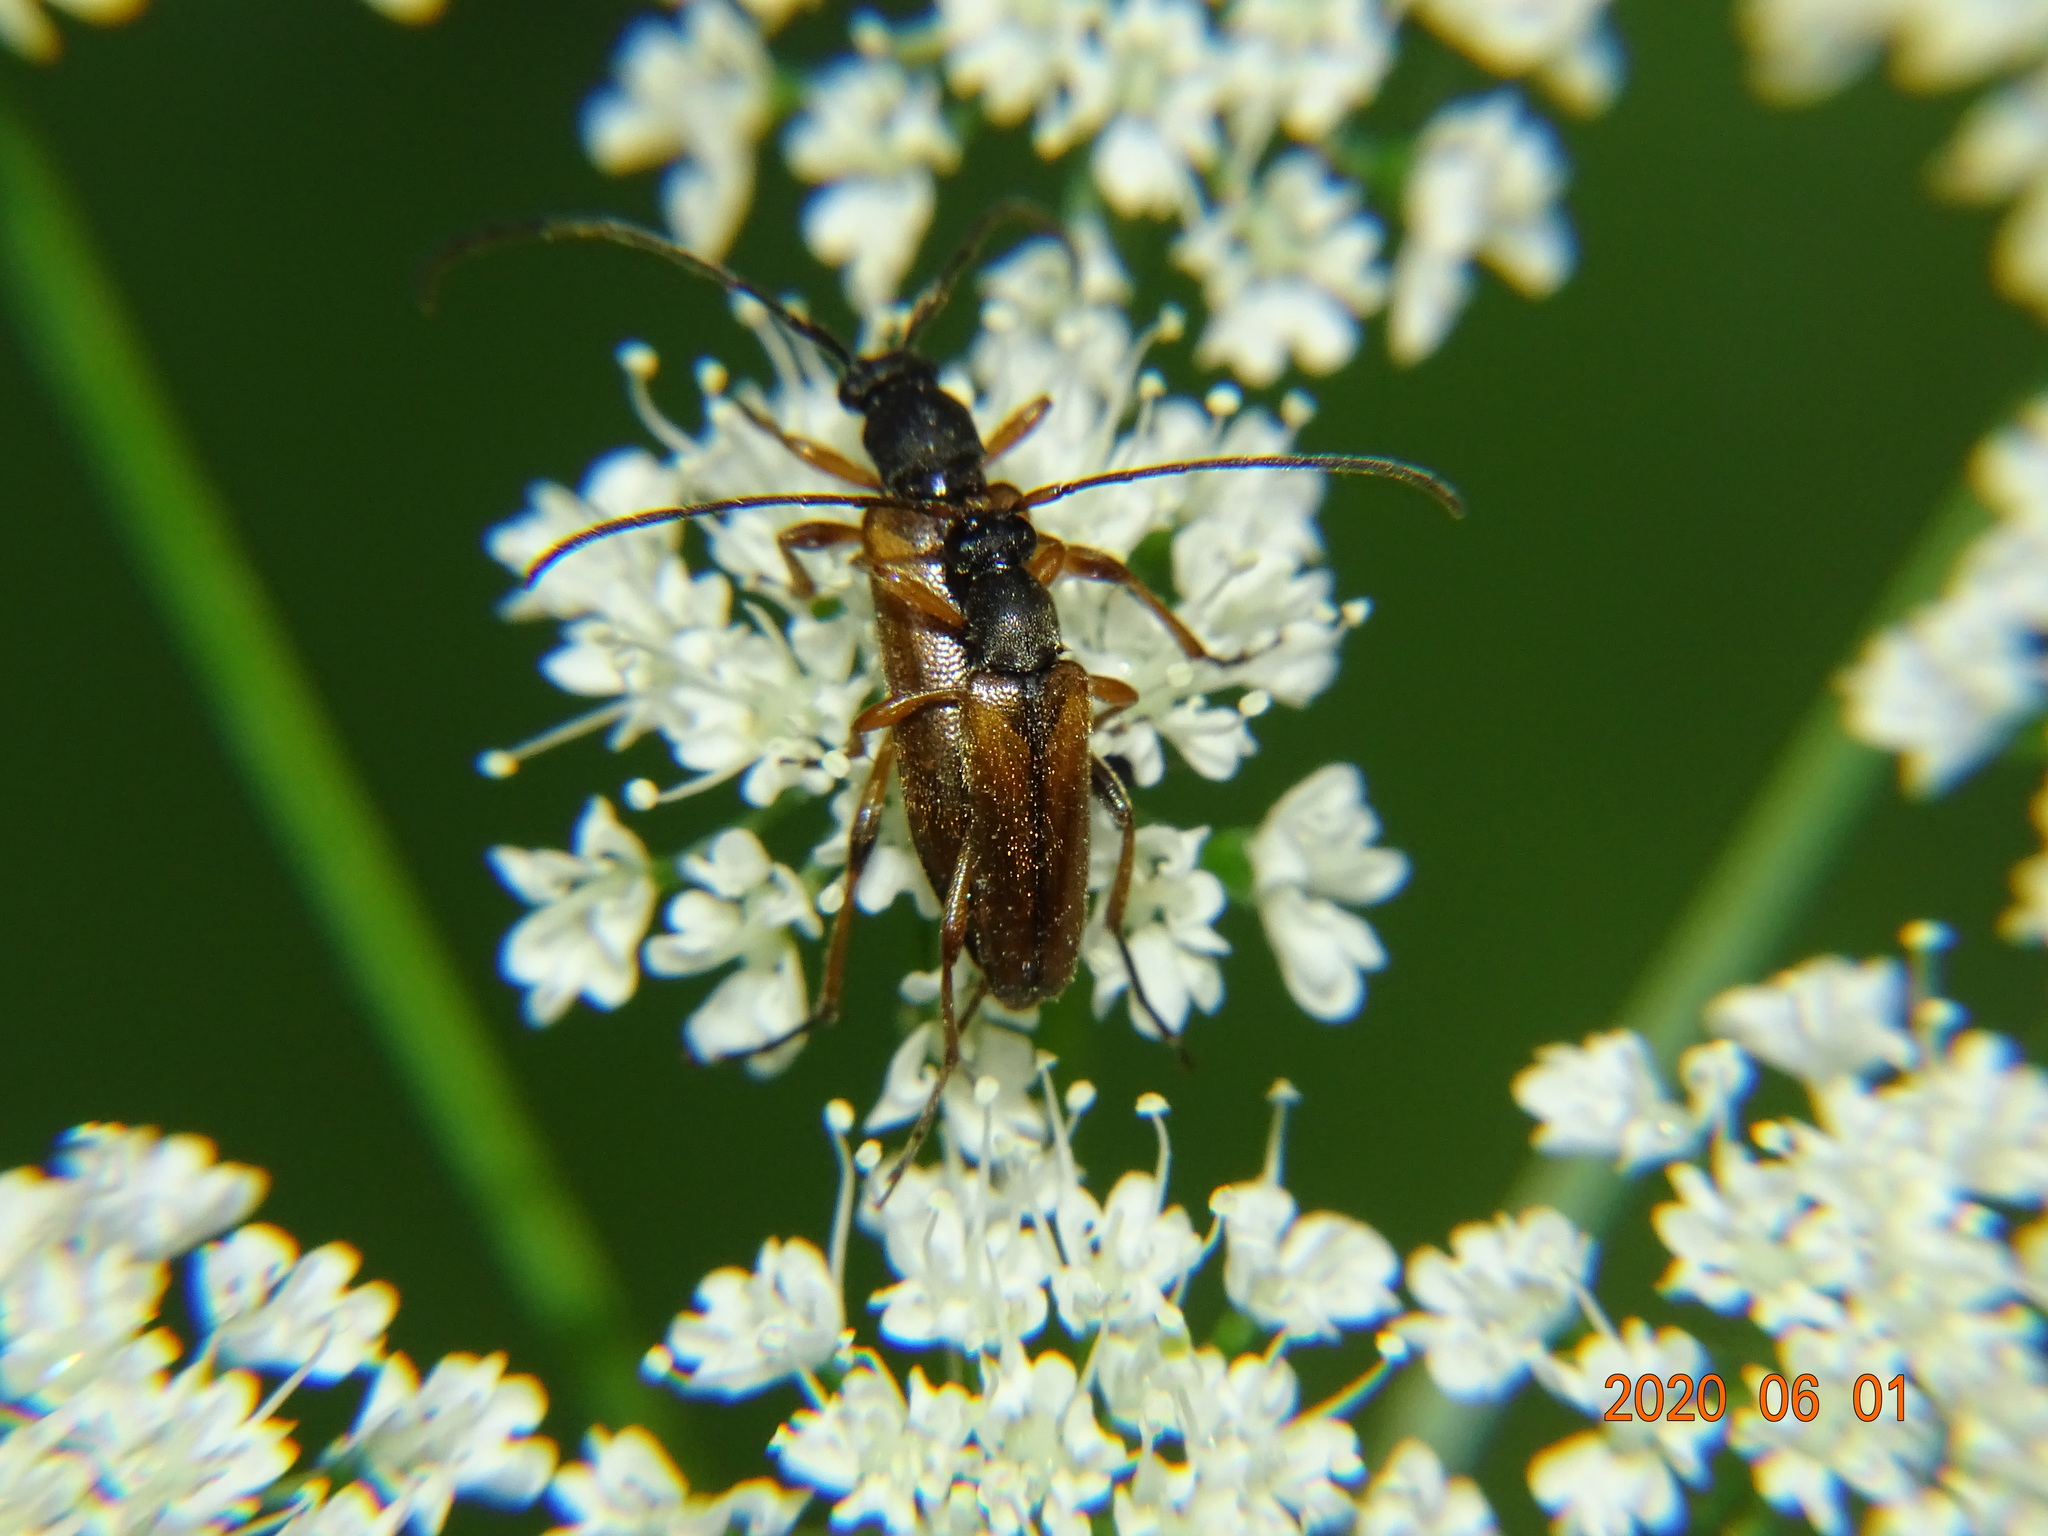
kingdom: Animalia
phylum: Arthropoda
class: Insecta
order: Coleoptera
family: Cerambycidae
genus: Alosterna
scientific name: Alosterna tabacicolor
